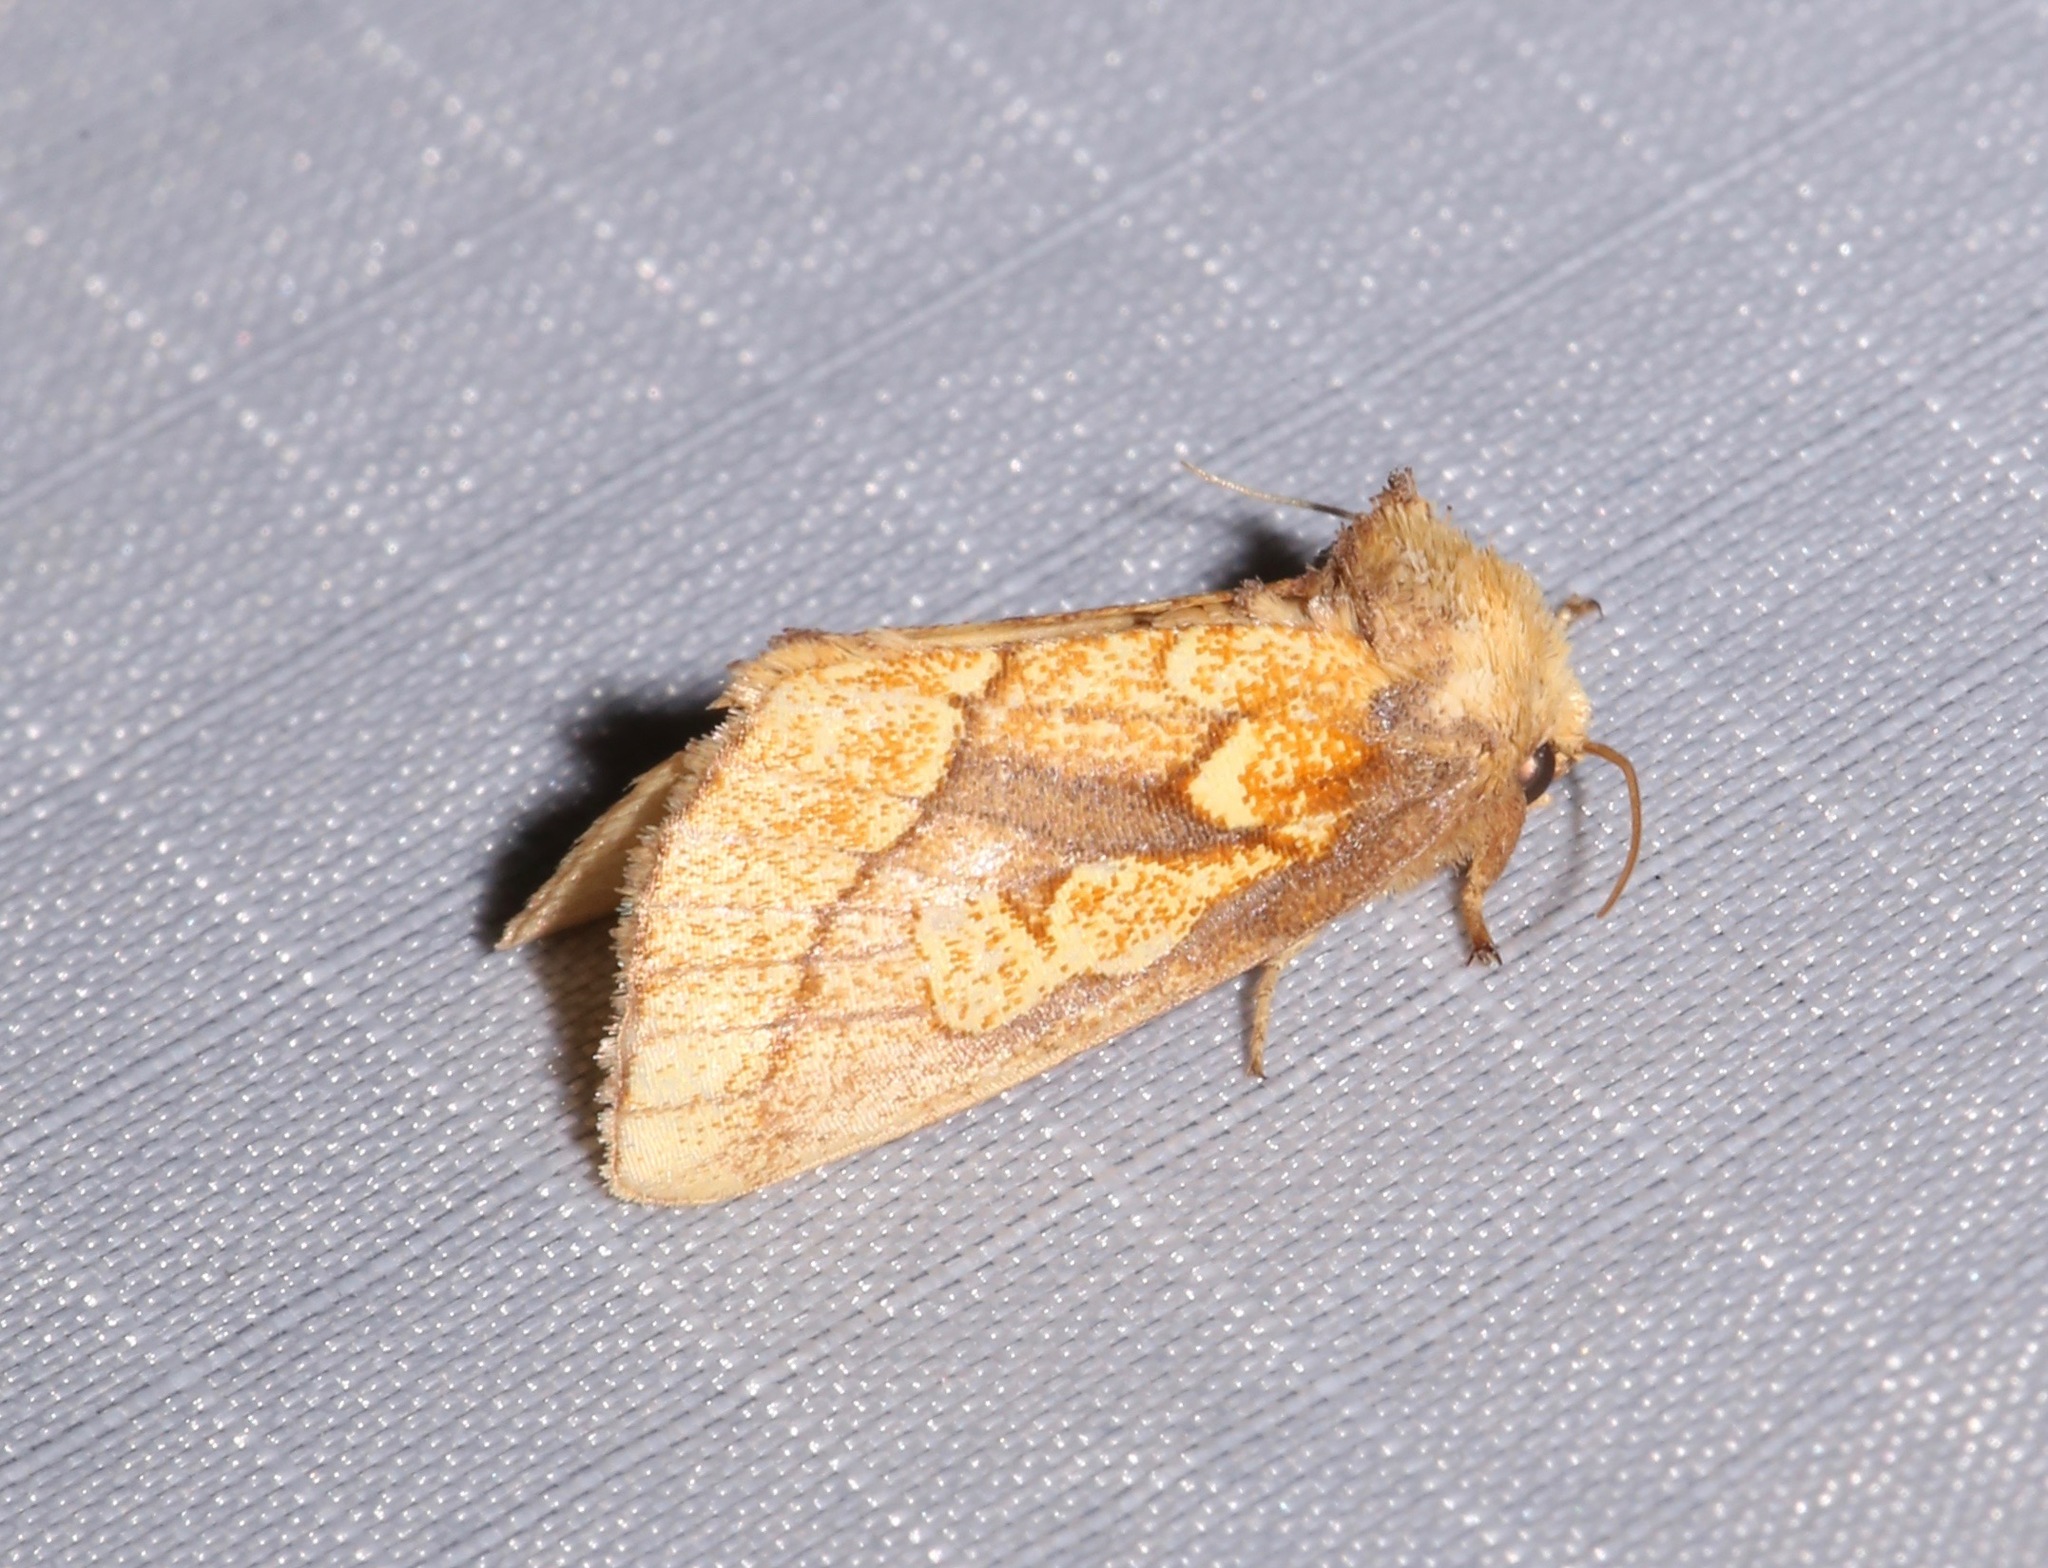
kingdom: Animalia
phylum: Arthropoda
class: Insecta
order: Lepidoptera
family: Noctuidae
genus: Nocloa
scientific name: Nocloa alcandra
